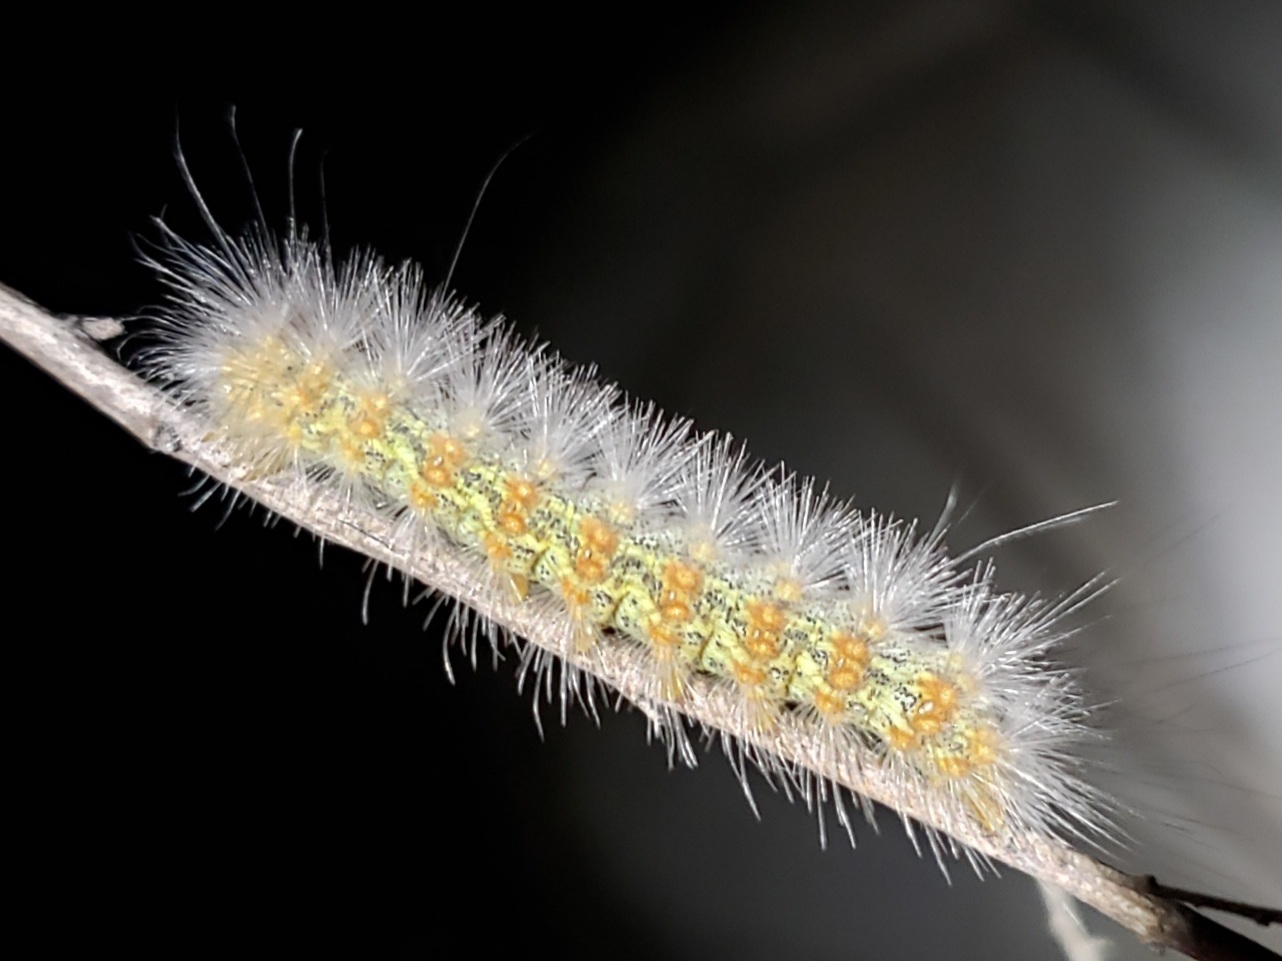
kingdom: Animalia
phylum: Arthropoda
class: Insecta
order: Lepidoptera
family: Erebidae
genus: Estigmene
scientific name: Estigmene acrea
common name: Salt marsh moth
